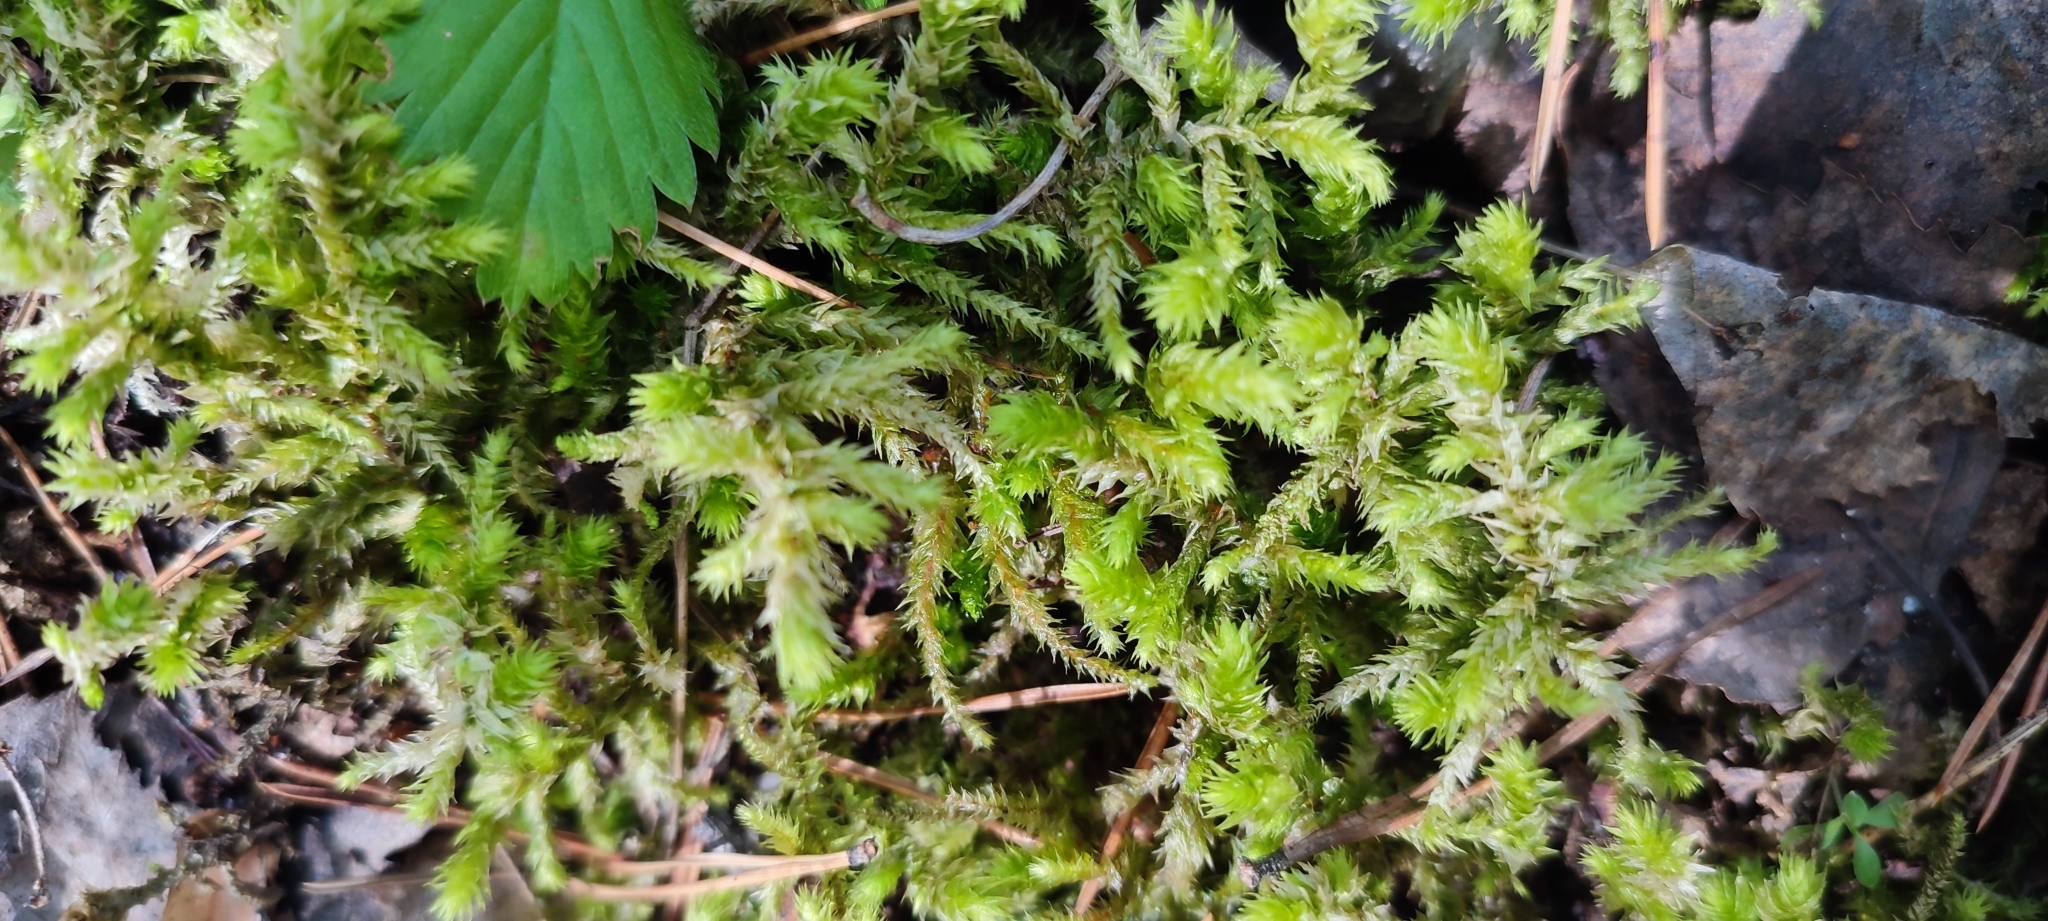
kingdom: Plantae
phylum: Bryophyta
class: Bryopsida
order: Hypnales
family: Hylocomiaceae
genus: Hylocomiadelphus
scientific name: Hylocomiadelphus triquetrus
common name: Rough goose neck moss
